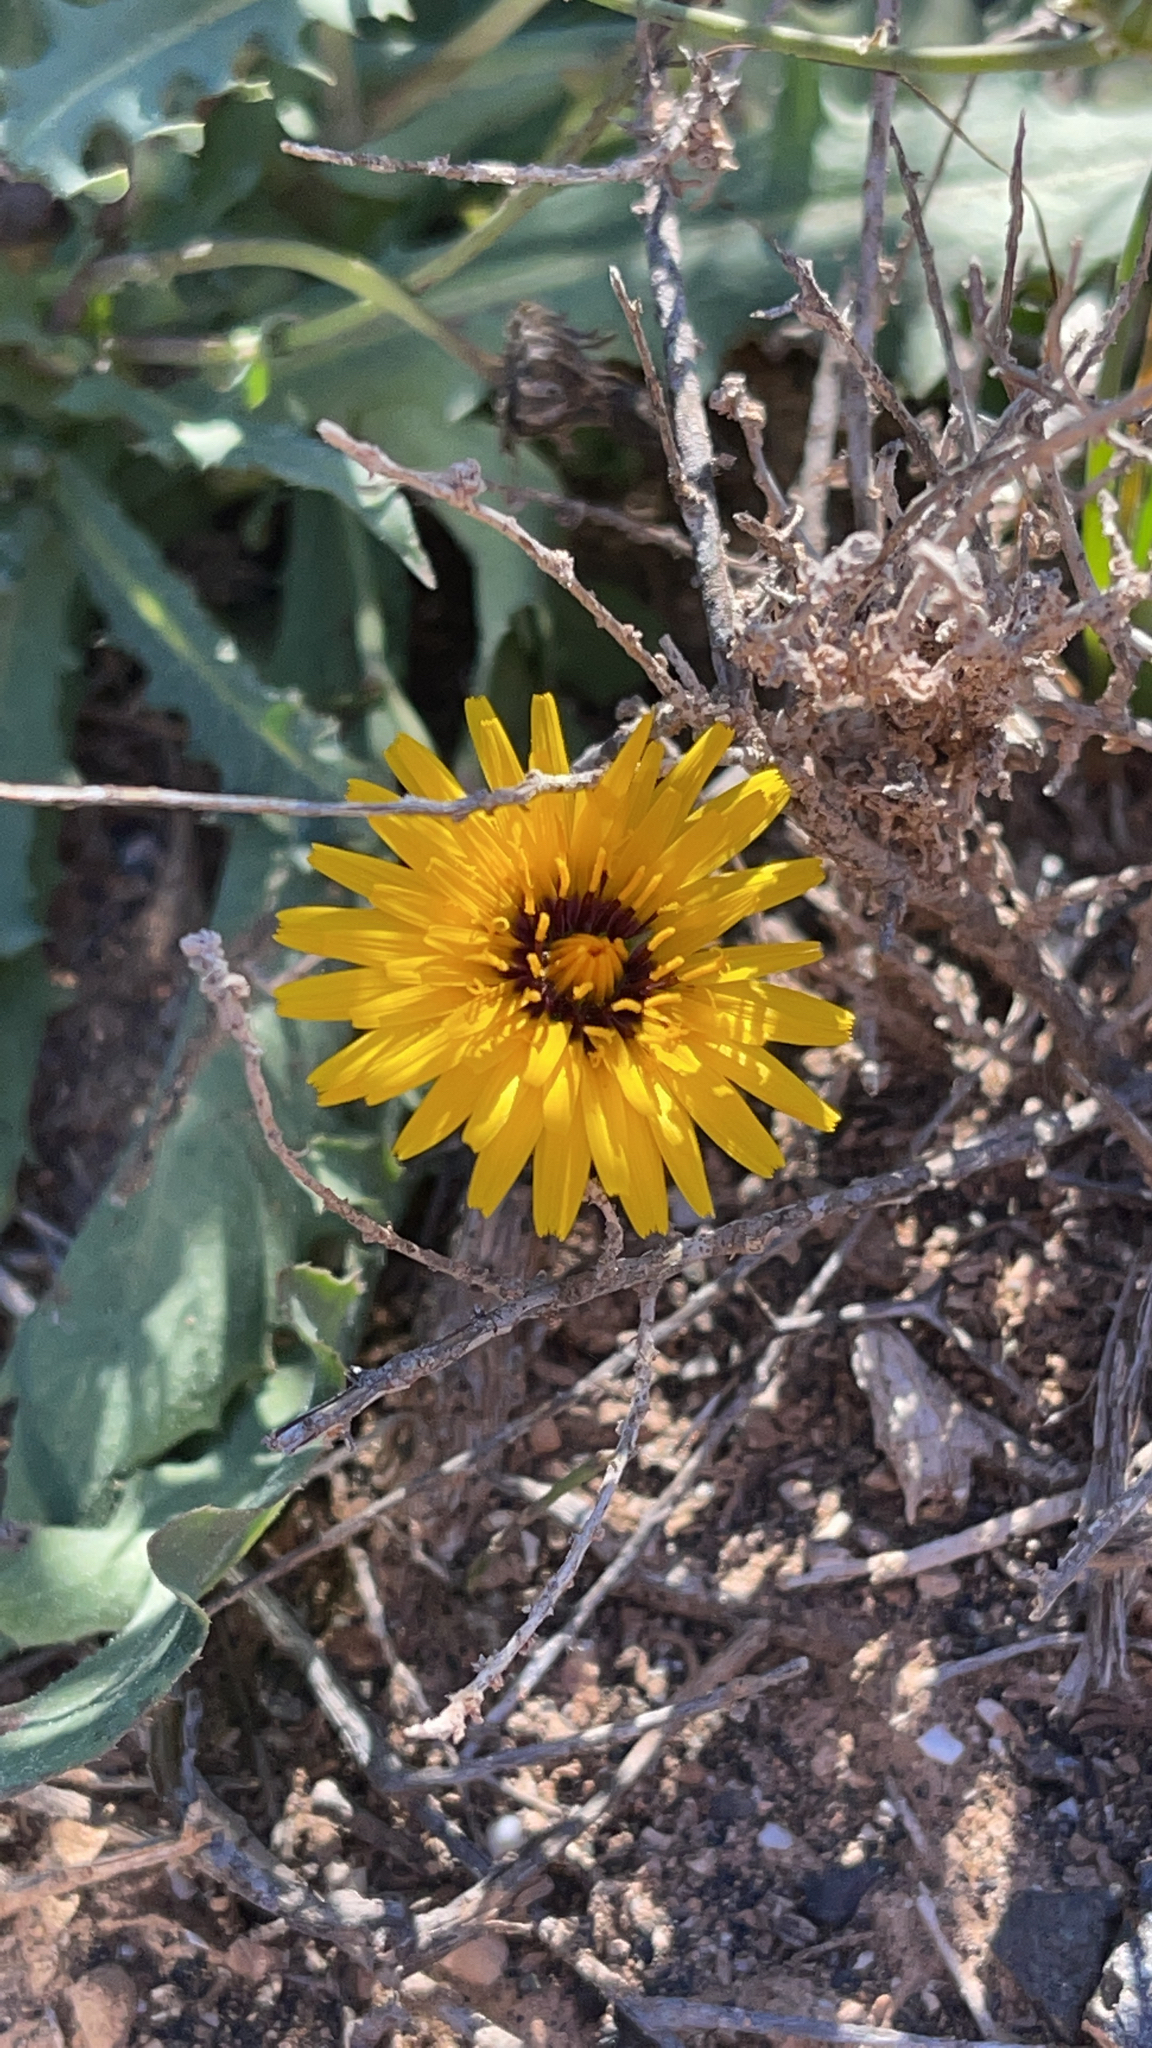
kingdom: Plantae
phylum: Tracheophyta
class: Magnoliopsida
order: Asterales
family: Asteraceae
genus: Reichardia
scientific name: Reichardia tingitana
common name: Reichardia
